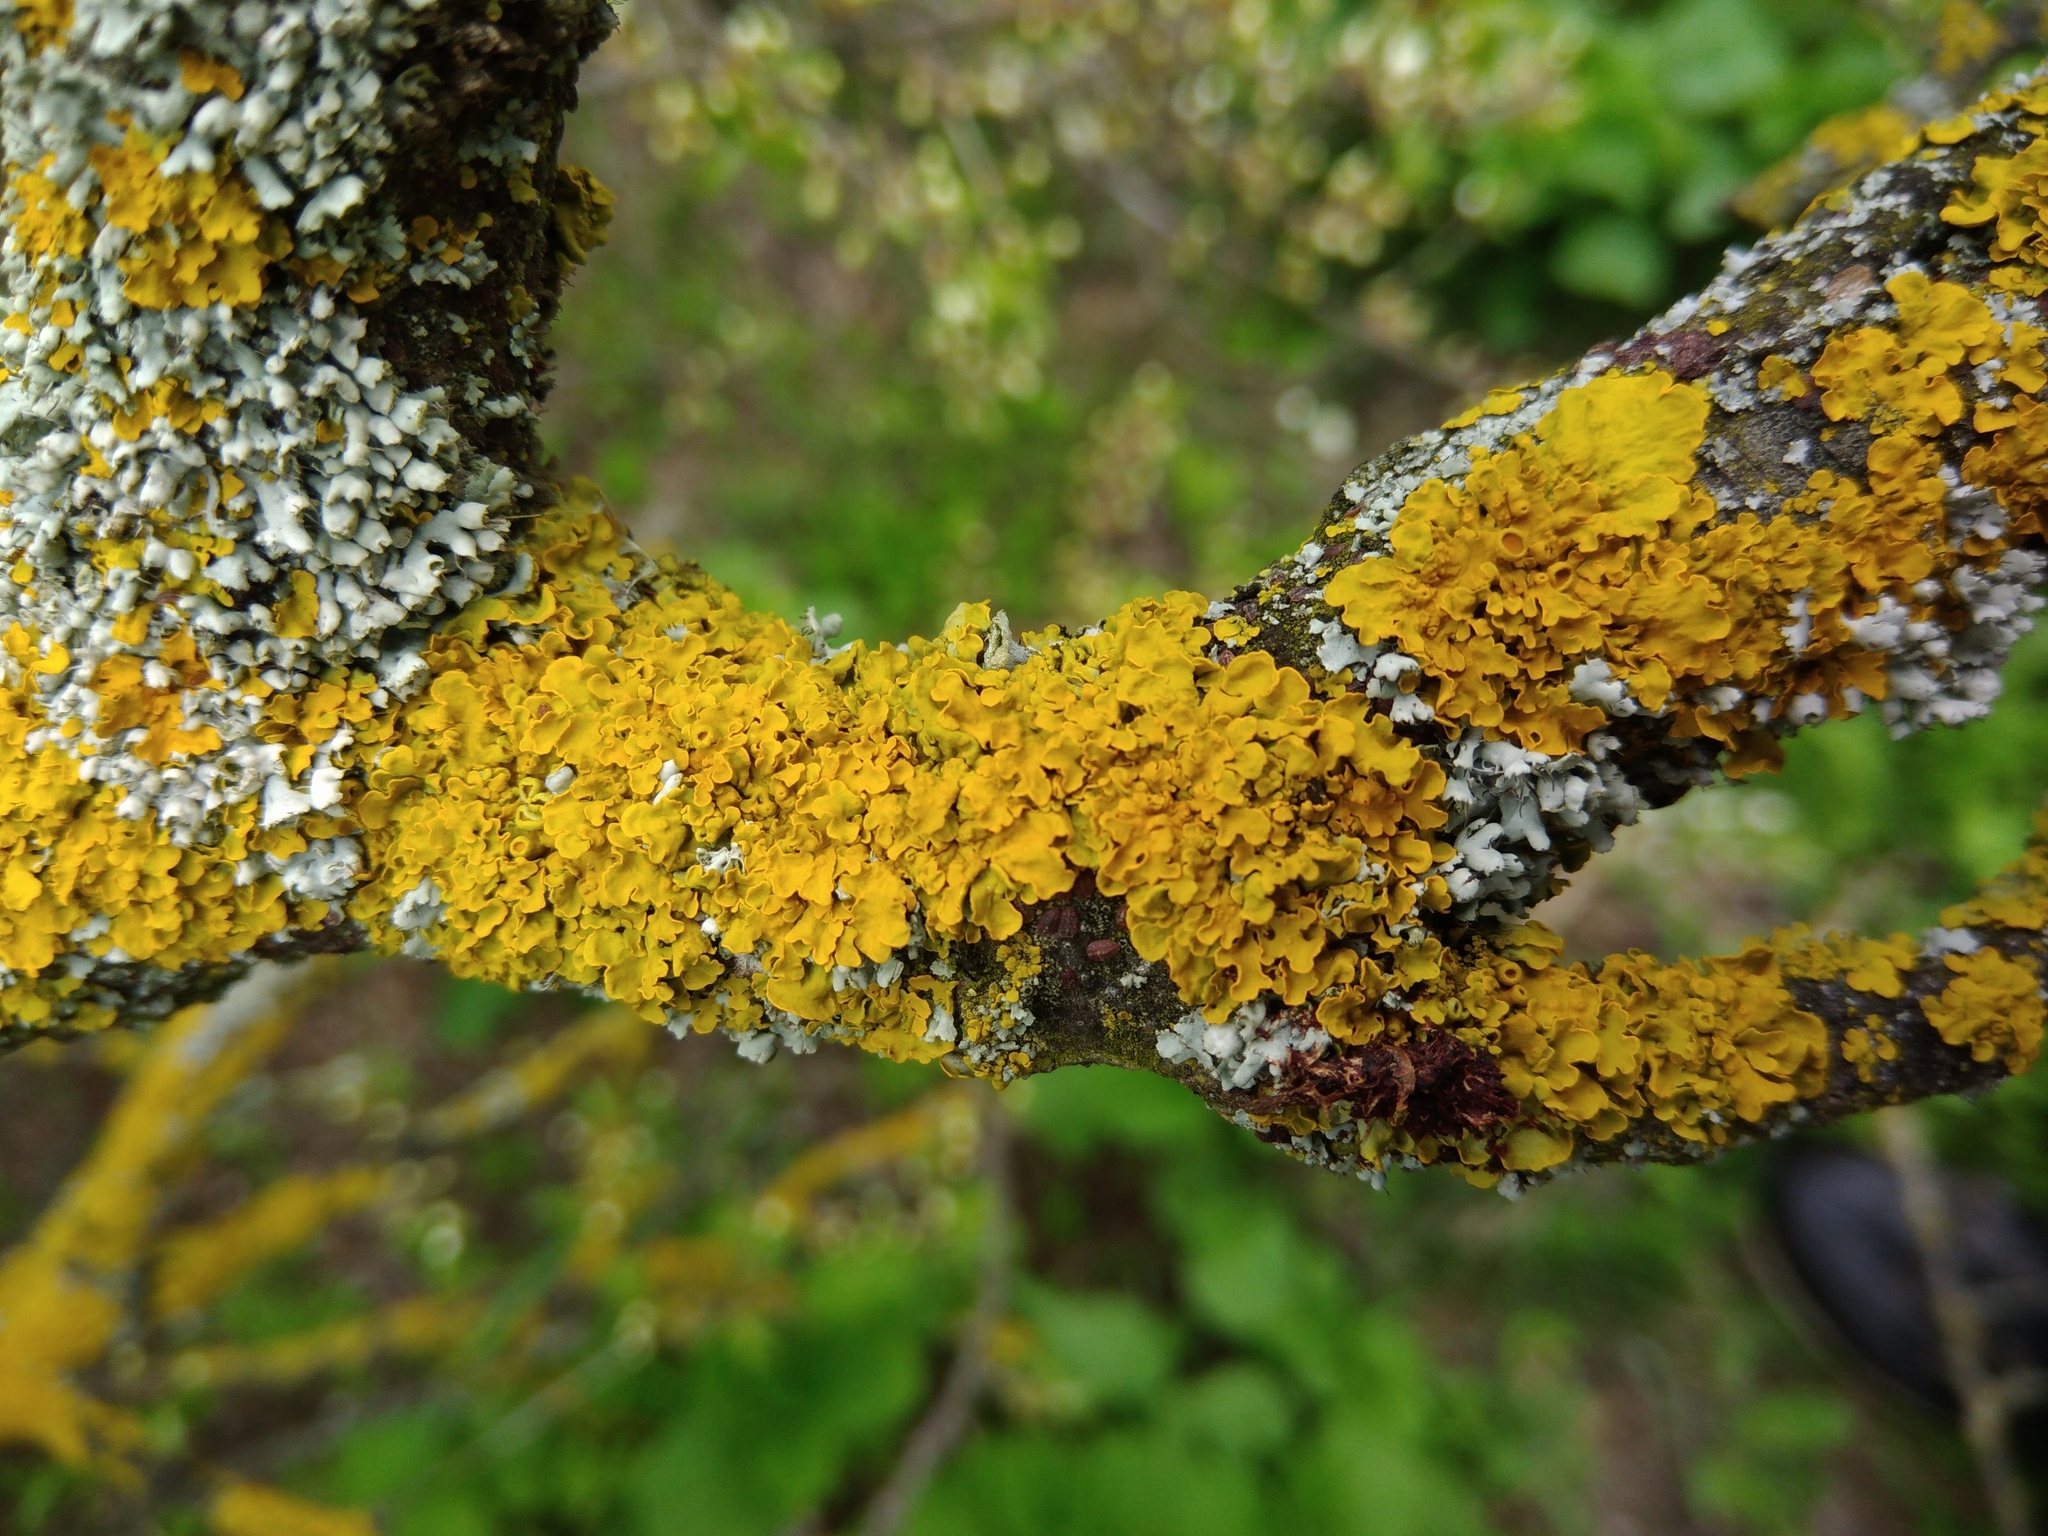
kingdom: Fungi
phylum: Ascomycota
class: Lecanoromycetes
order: Teloschistales
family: Teloschistaceae
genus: Xanthoria
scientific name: Xanthoria parietina
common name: Common orange lichen
